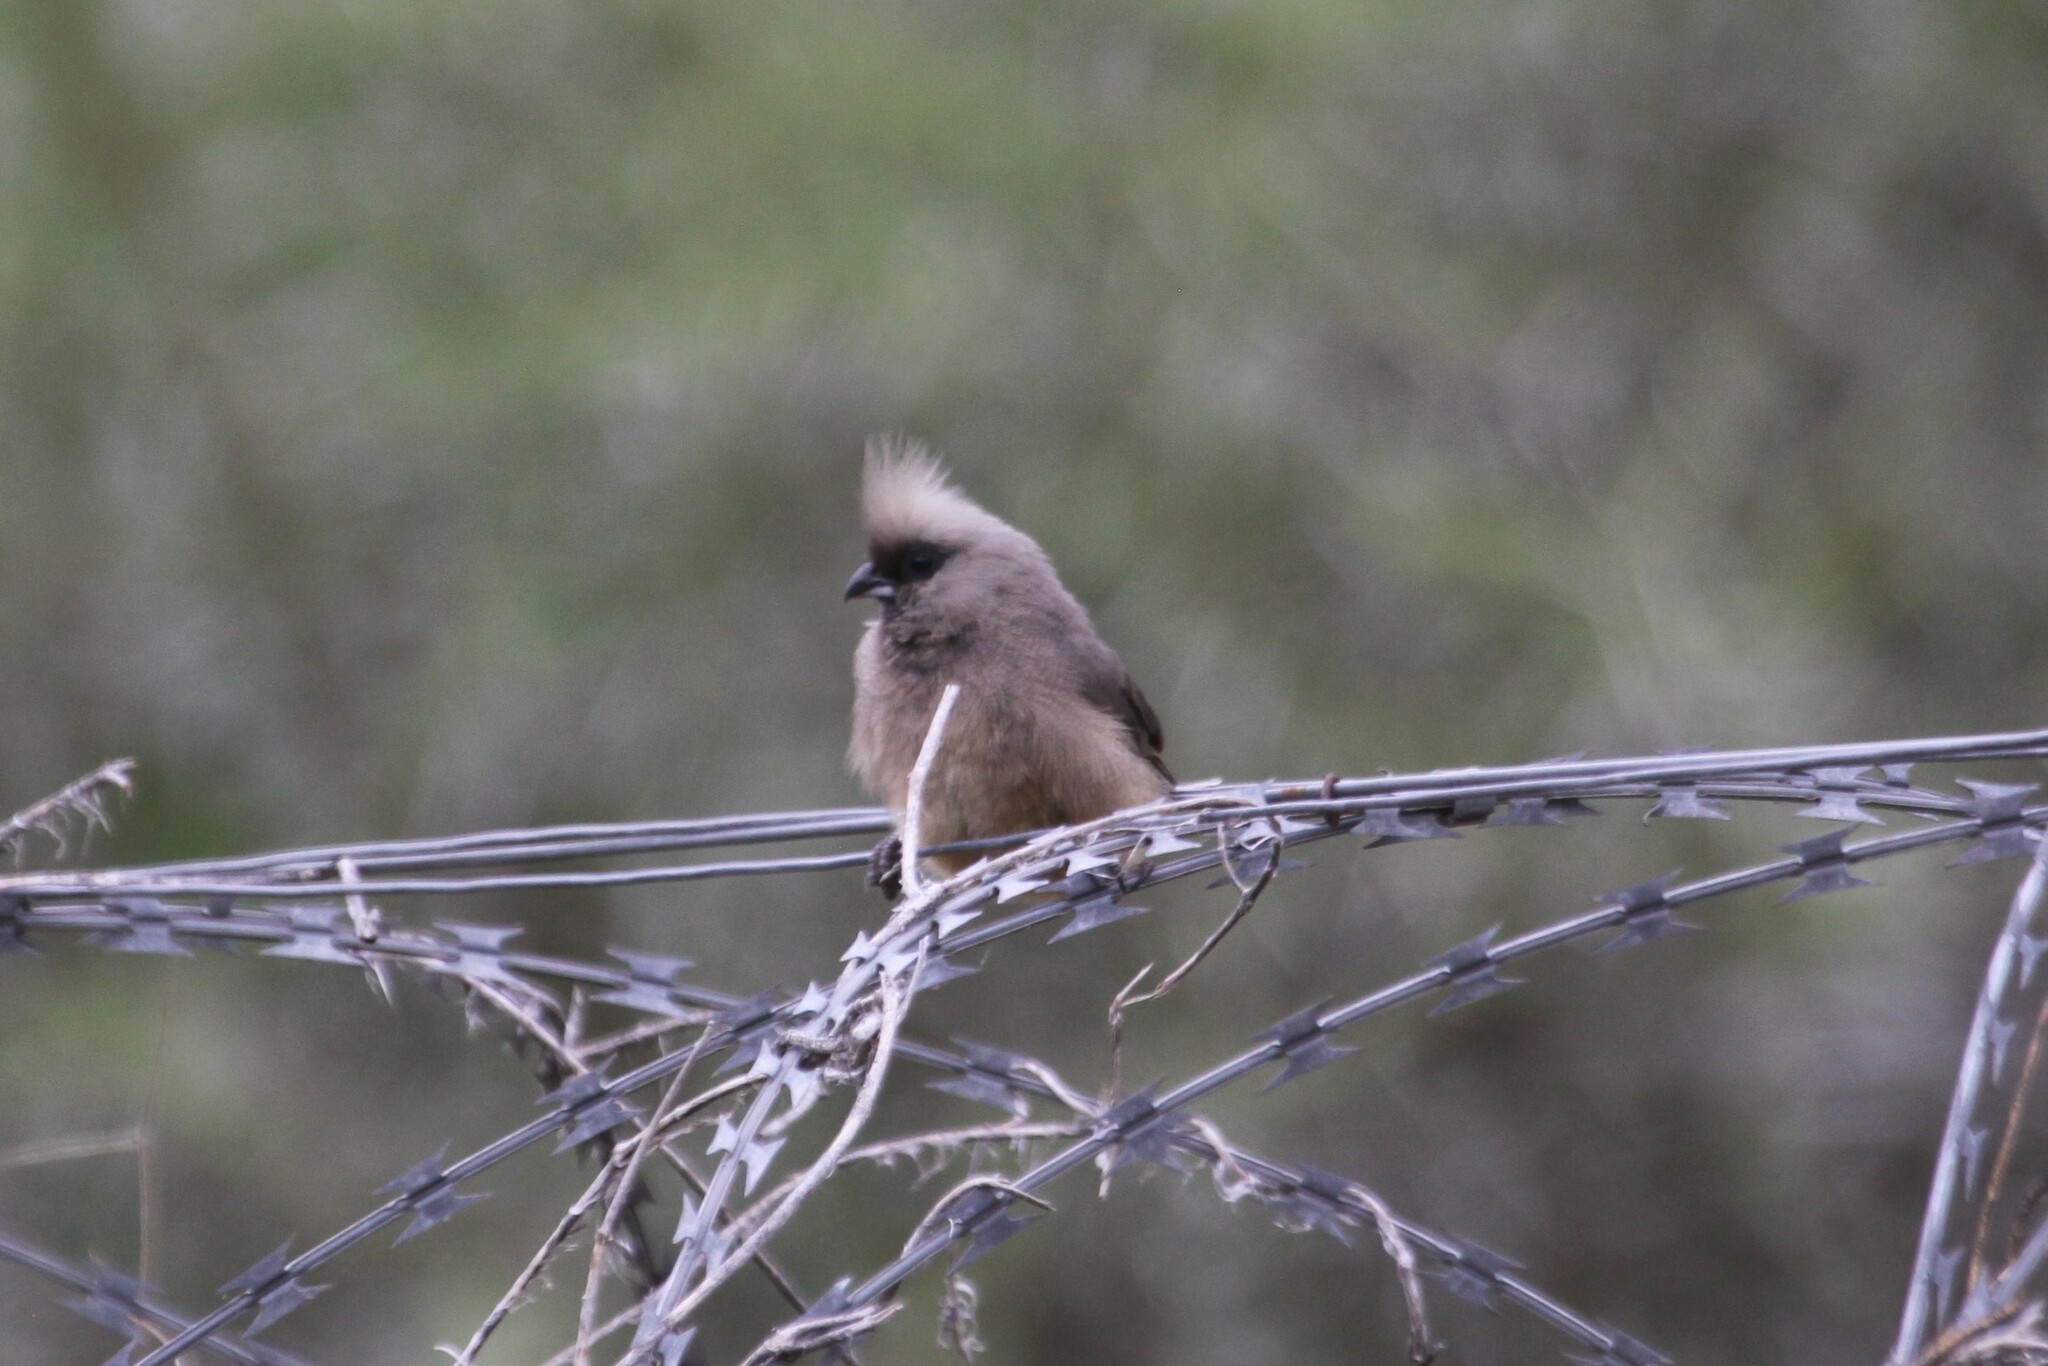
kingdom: Animalia
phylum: Chordata
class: Aves
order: Coliiformes
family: Coliidae
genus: Colius
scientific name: Colius striatus
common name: Speckled mousebird
